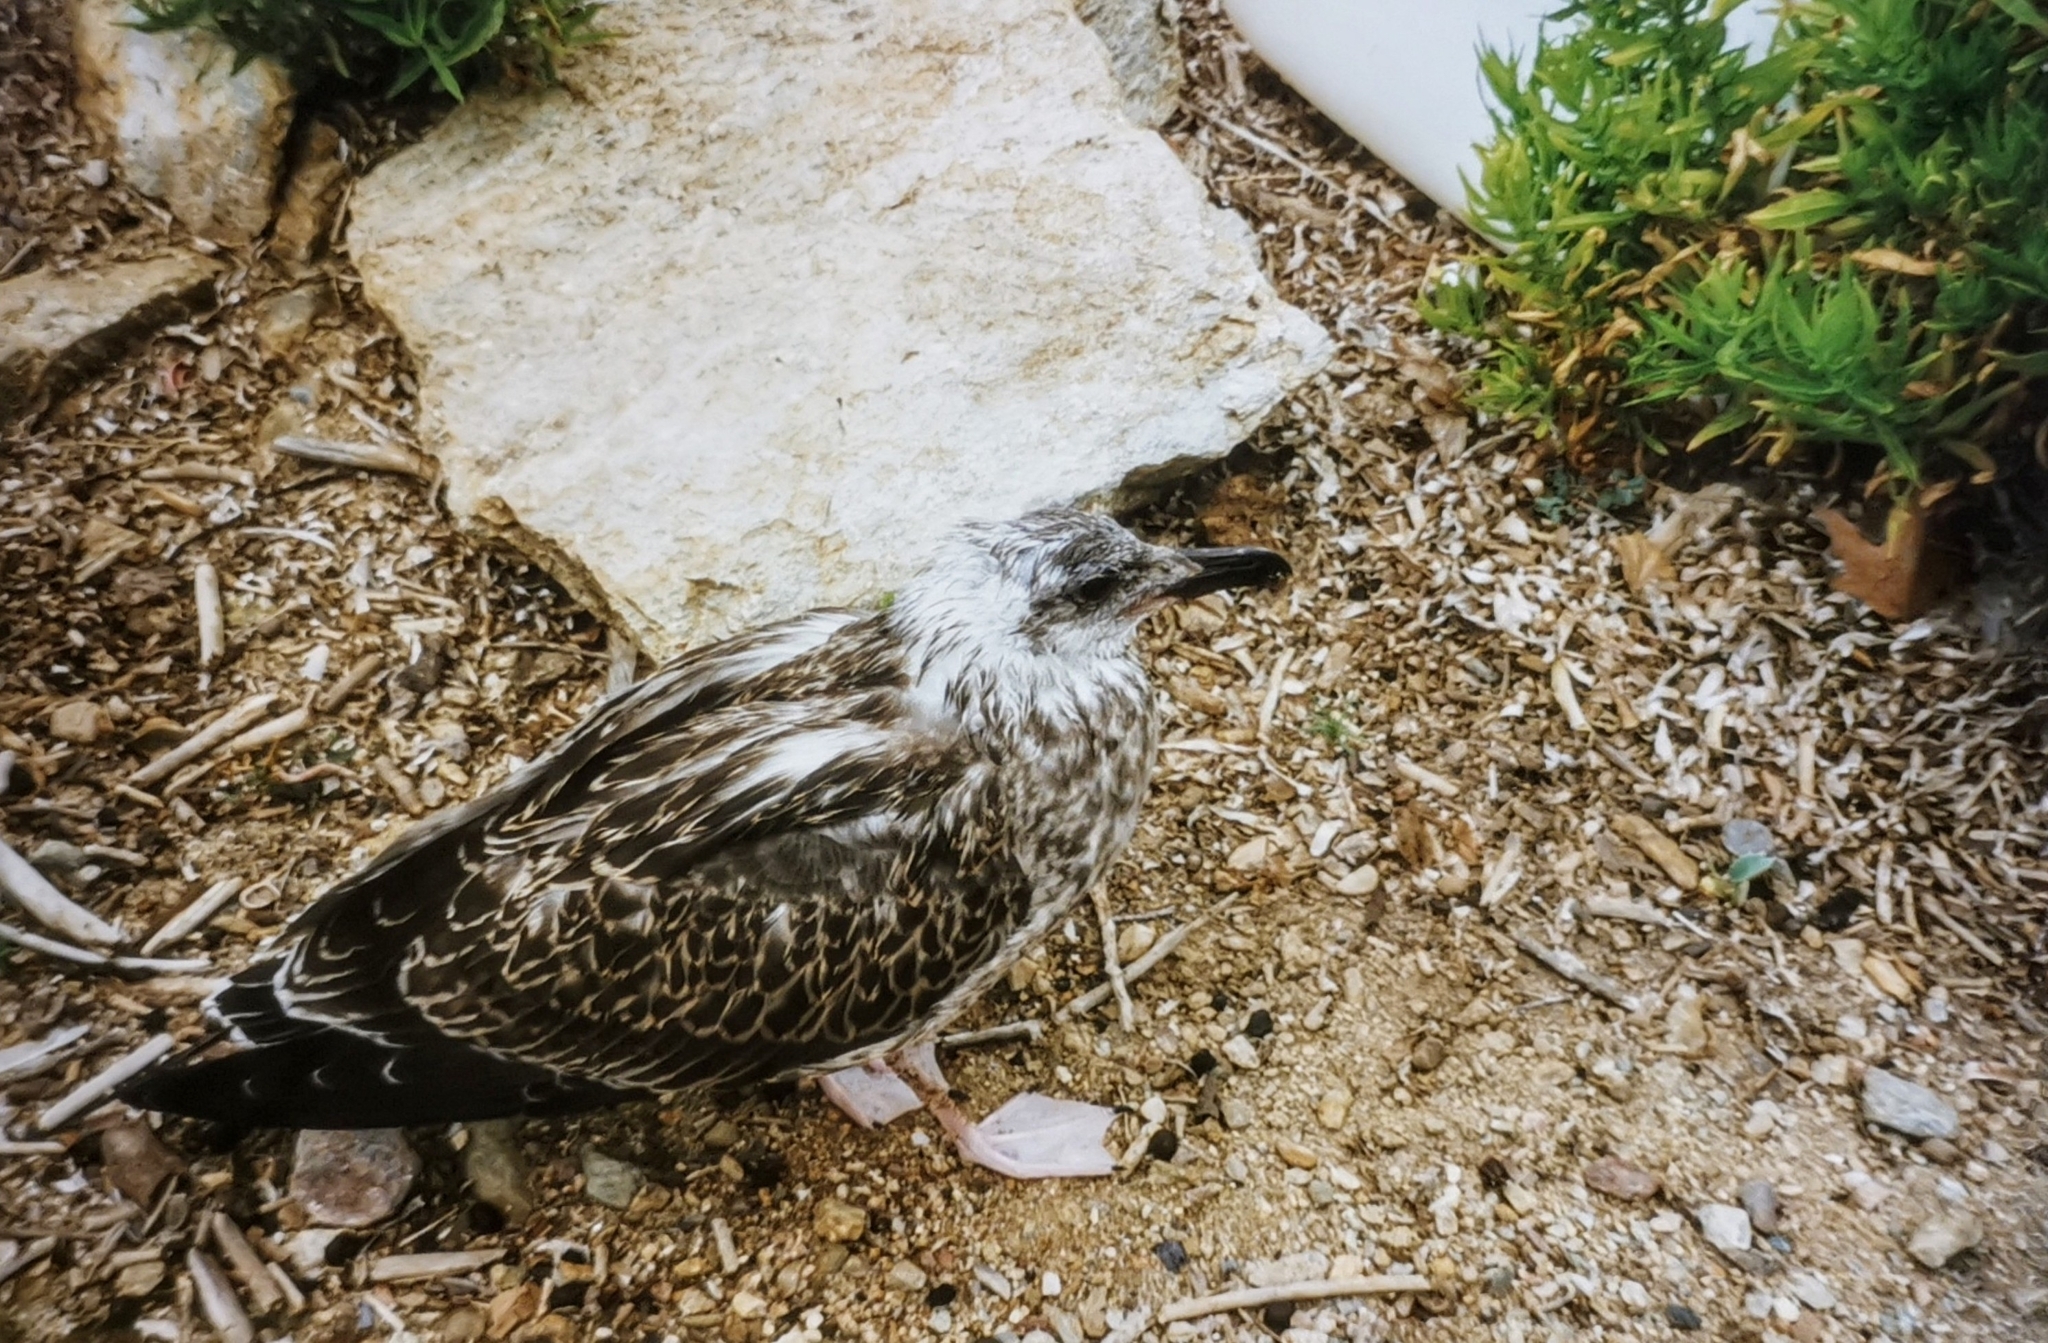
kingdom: Animalia
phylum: Chordata
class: Aves
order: Charadriiformes
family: Laridae
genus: Larus
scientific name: Larus michahellis
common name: Yellow-legged gull
